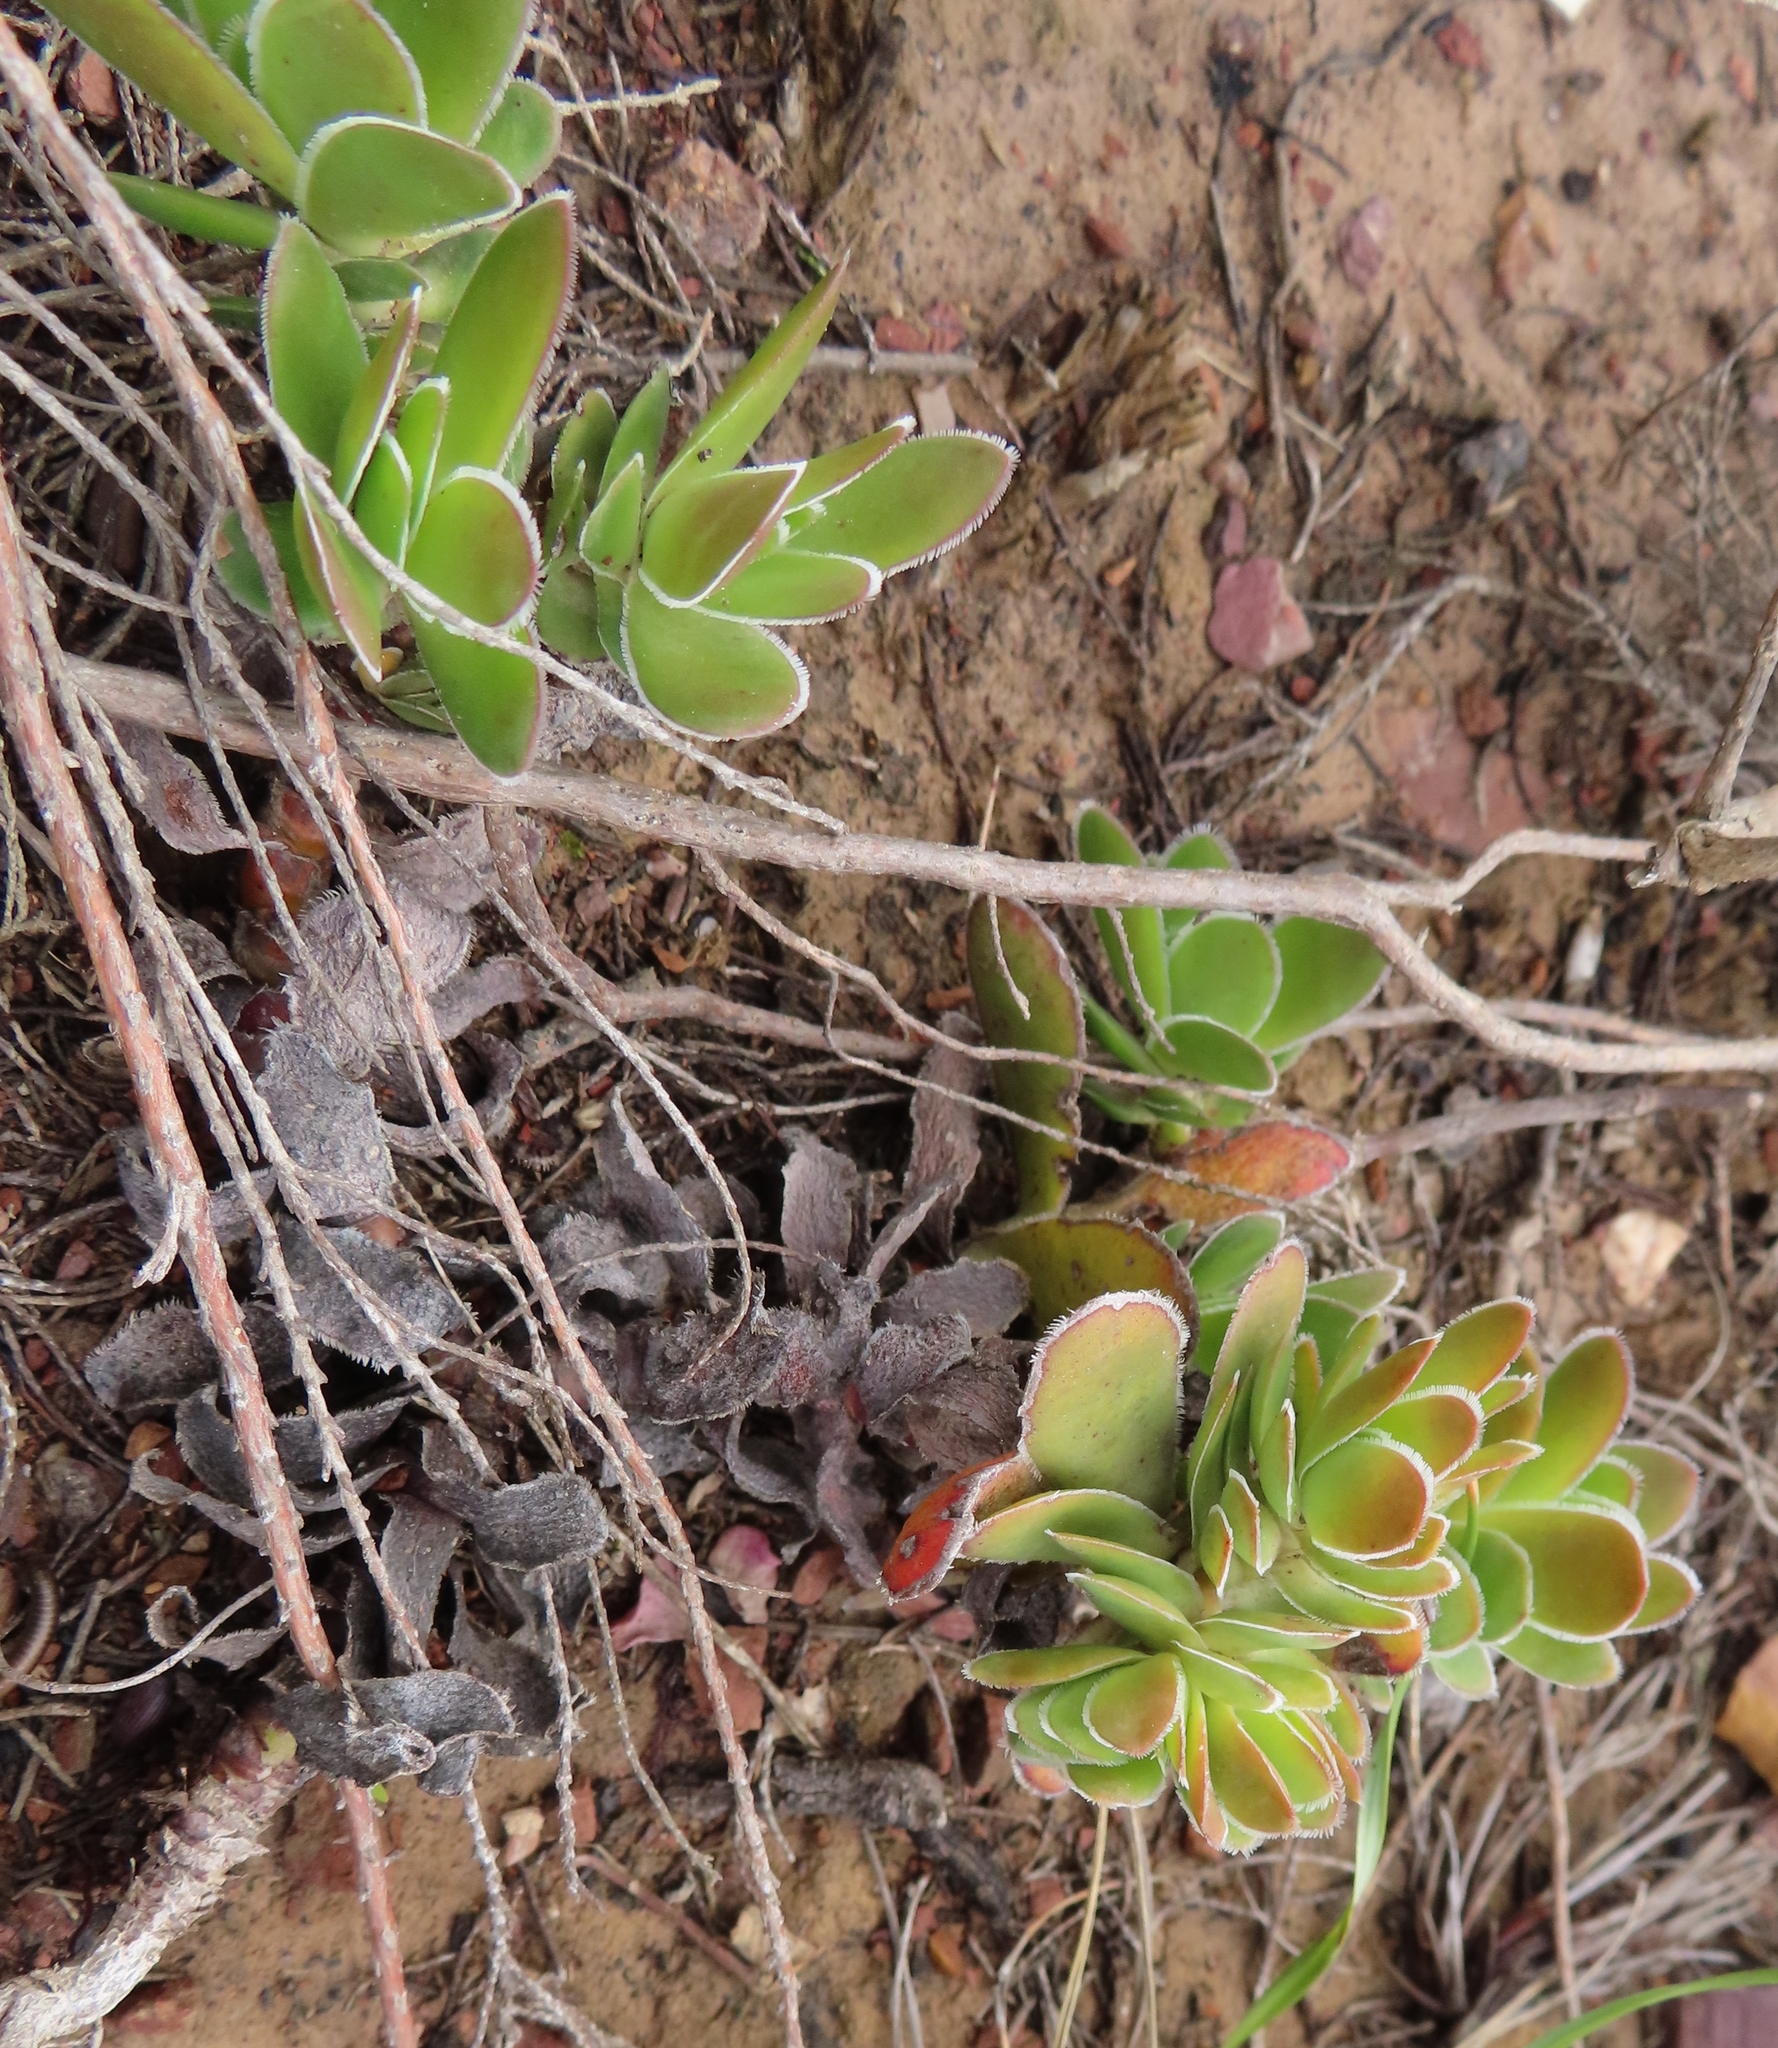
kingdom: Plantae
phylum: Tracheophyta
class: Magnoliopsida
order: Saxifragales
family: Crassulaceae
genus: Crassula
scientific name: Crassula ciliata
